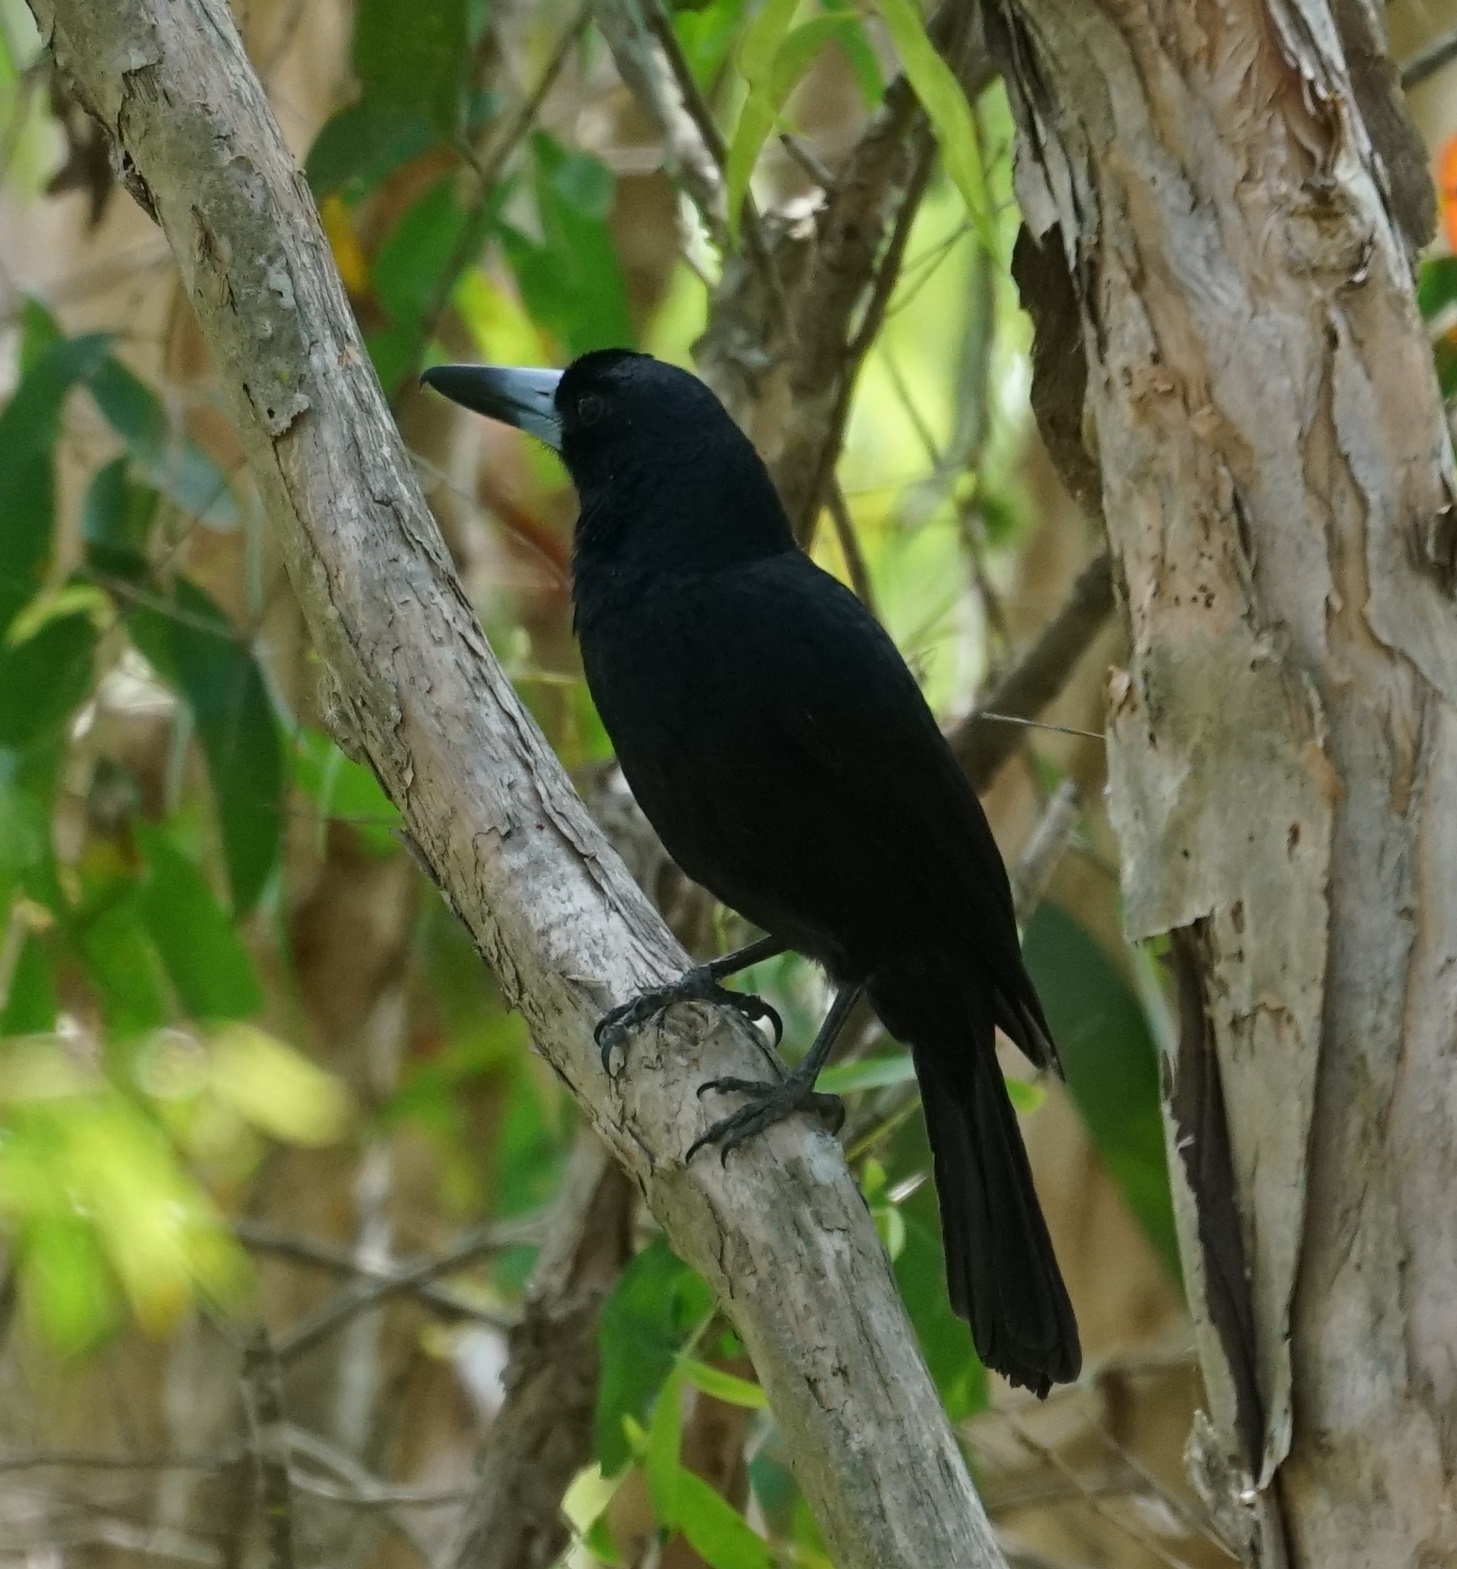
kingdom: Animalia
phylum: Chordata
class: Aves
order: Passeriformes
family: Artamidae
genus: Melloria
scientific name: Melloria quoyi
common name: Black butcherbird
